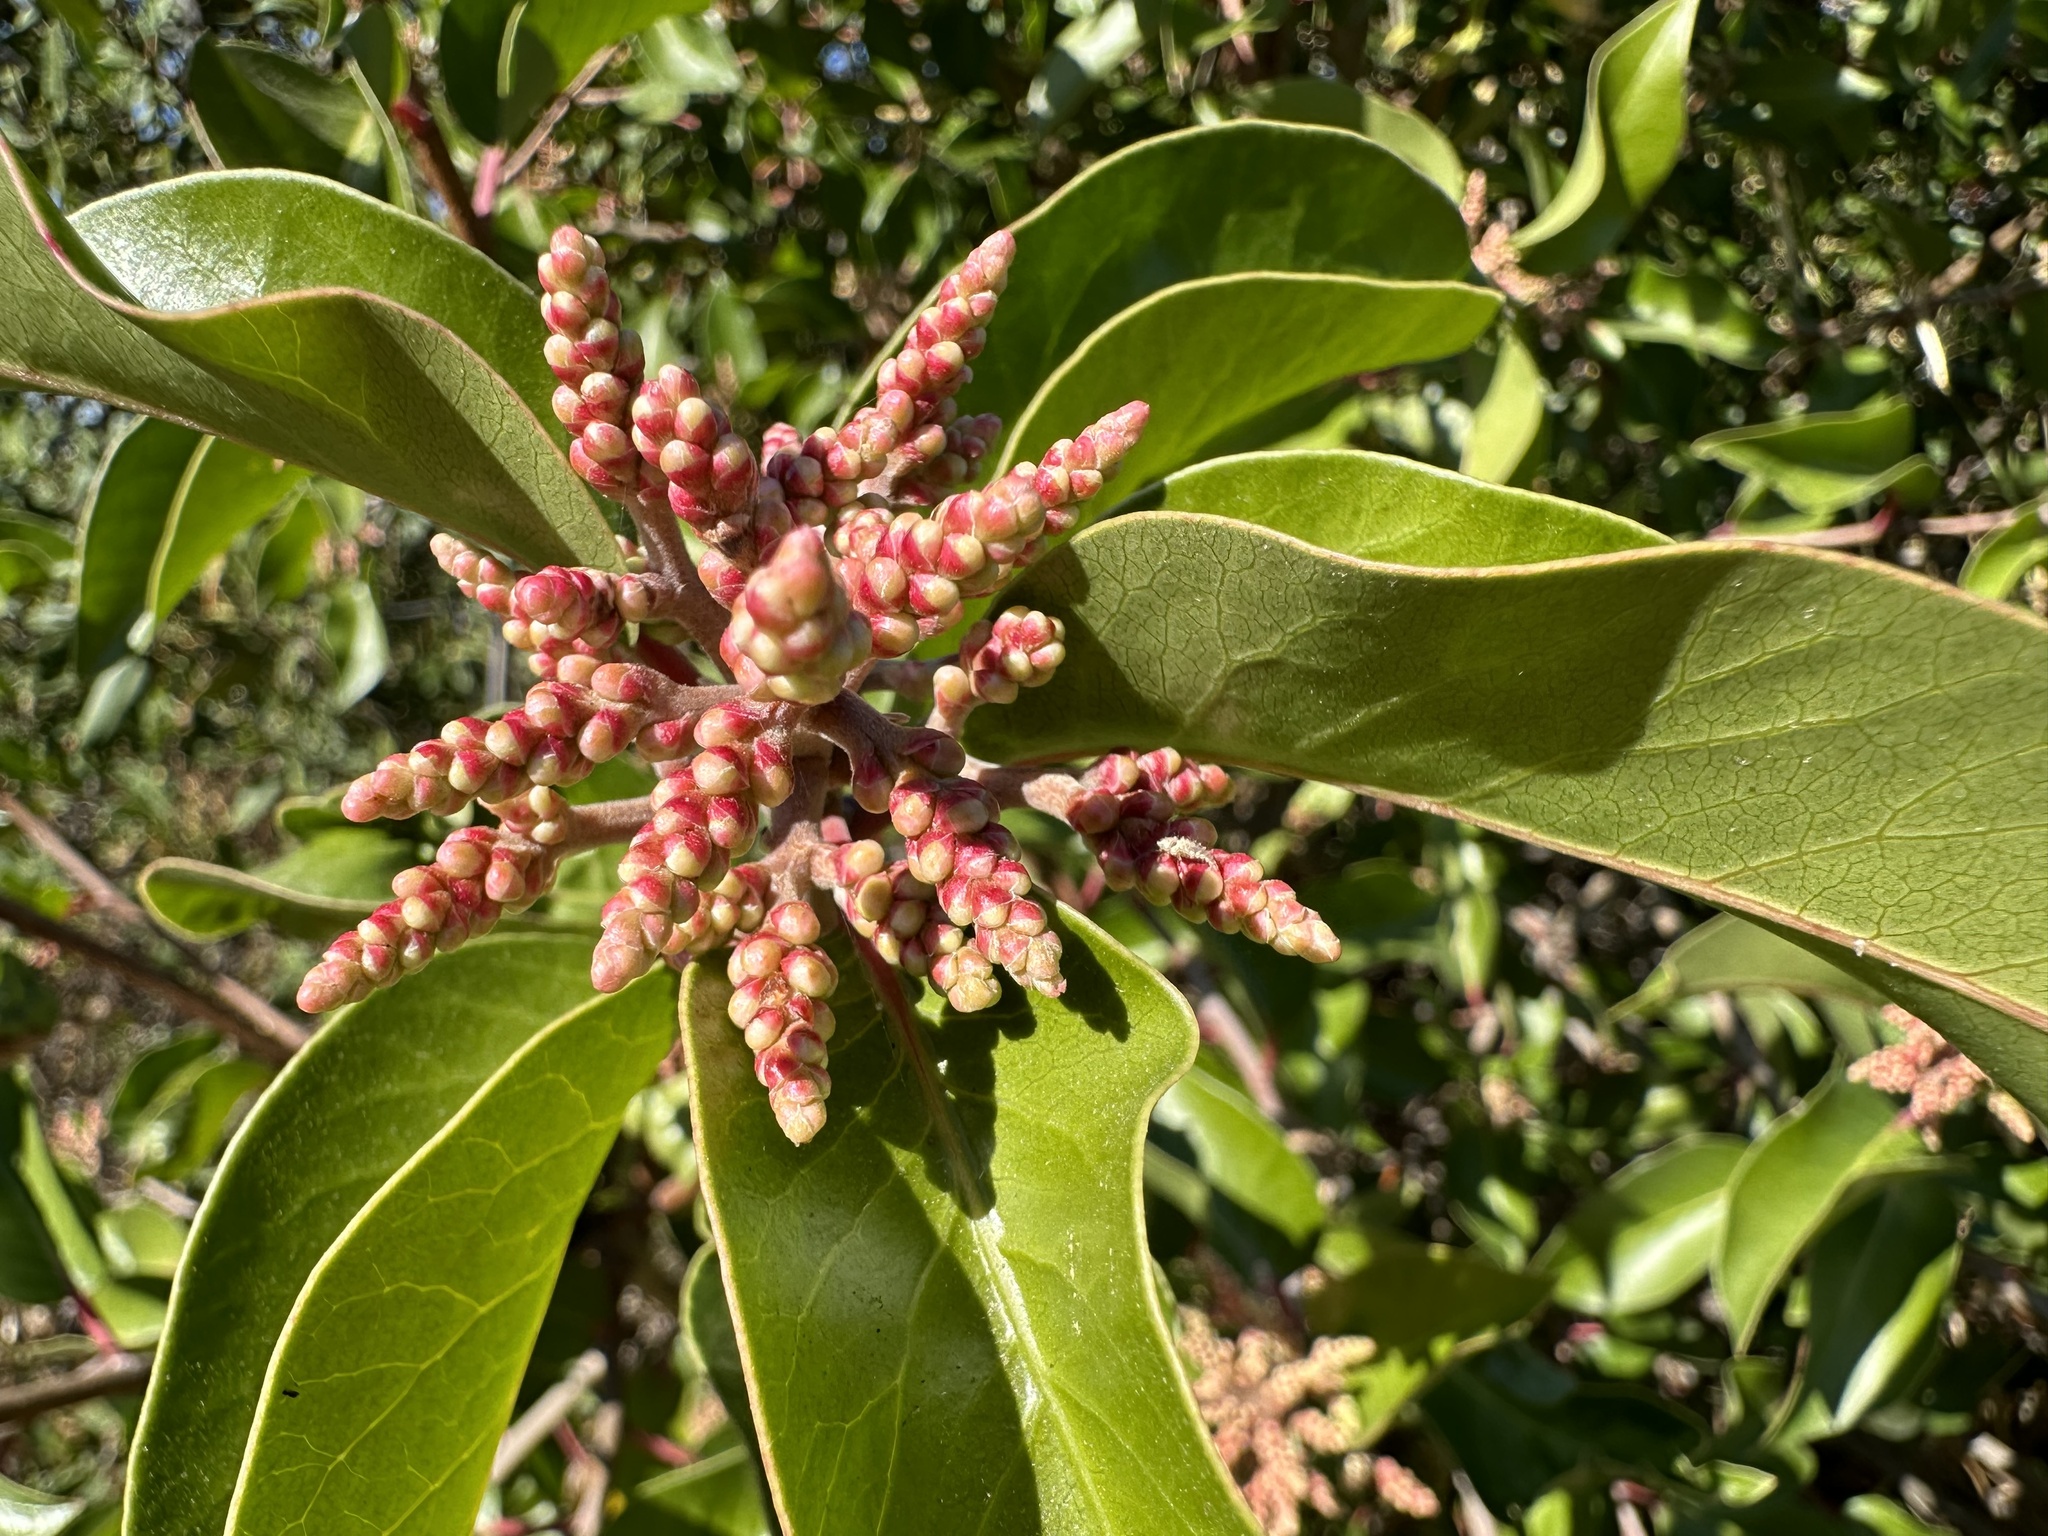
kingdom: Plantae
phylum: Tracheophyta
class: Magnoliopsida
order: Sapindales
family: Anacardiaceae
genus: Rhus
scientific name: Rhus ovata
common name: Sugar sumac
